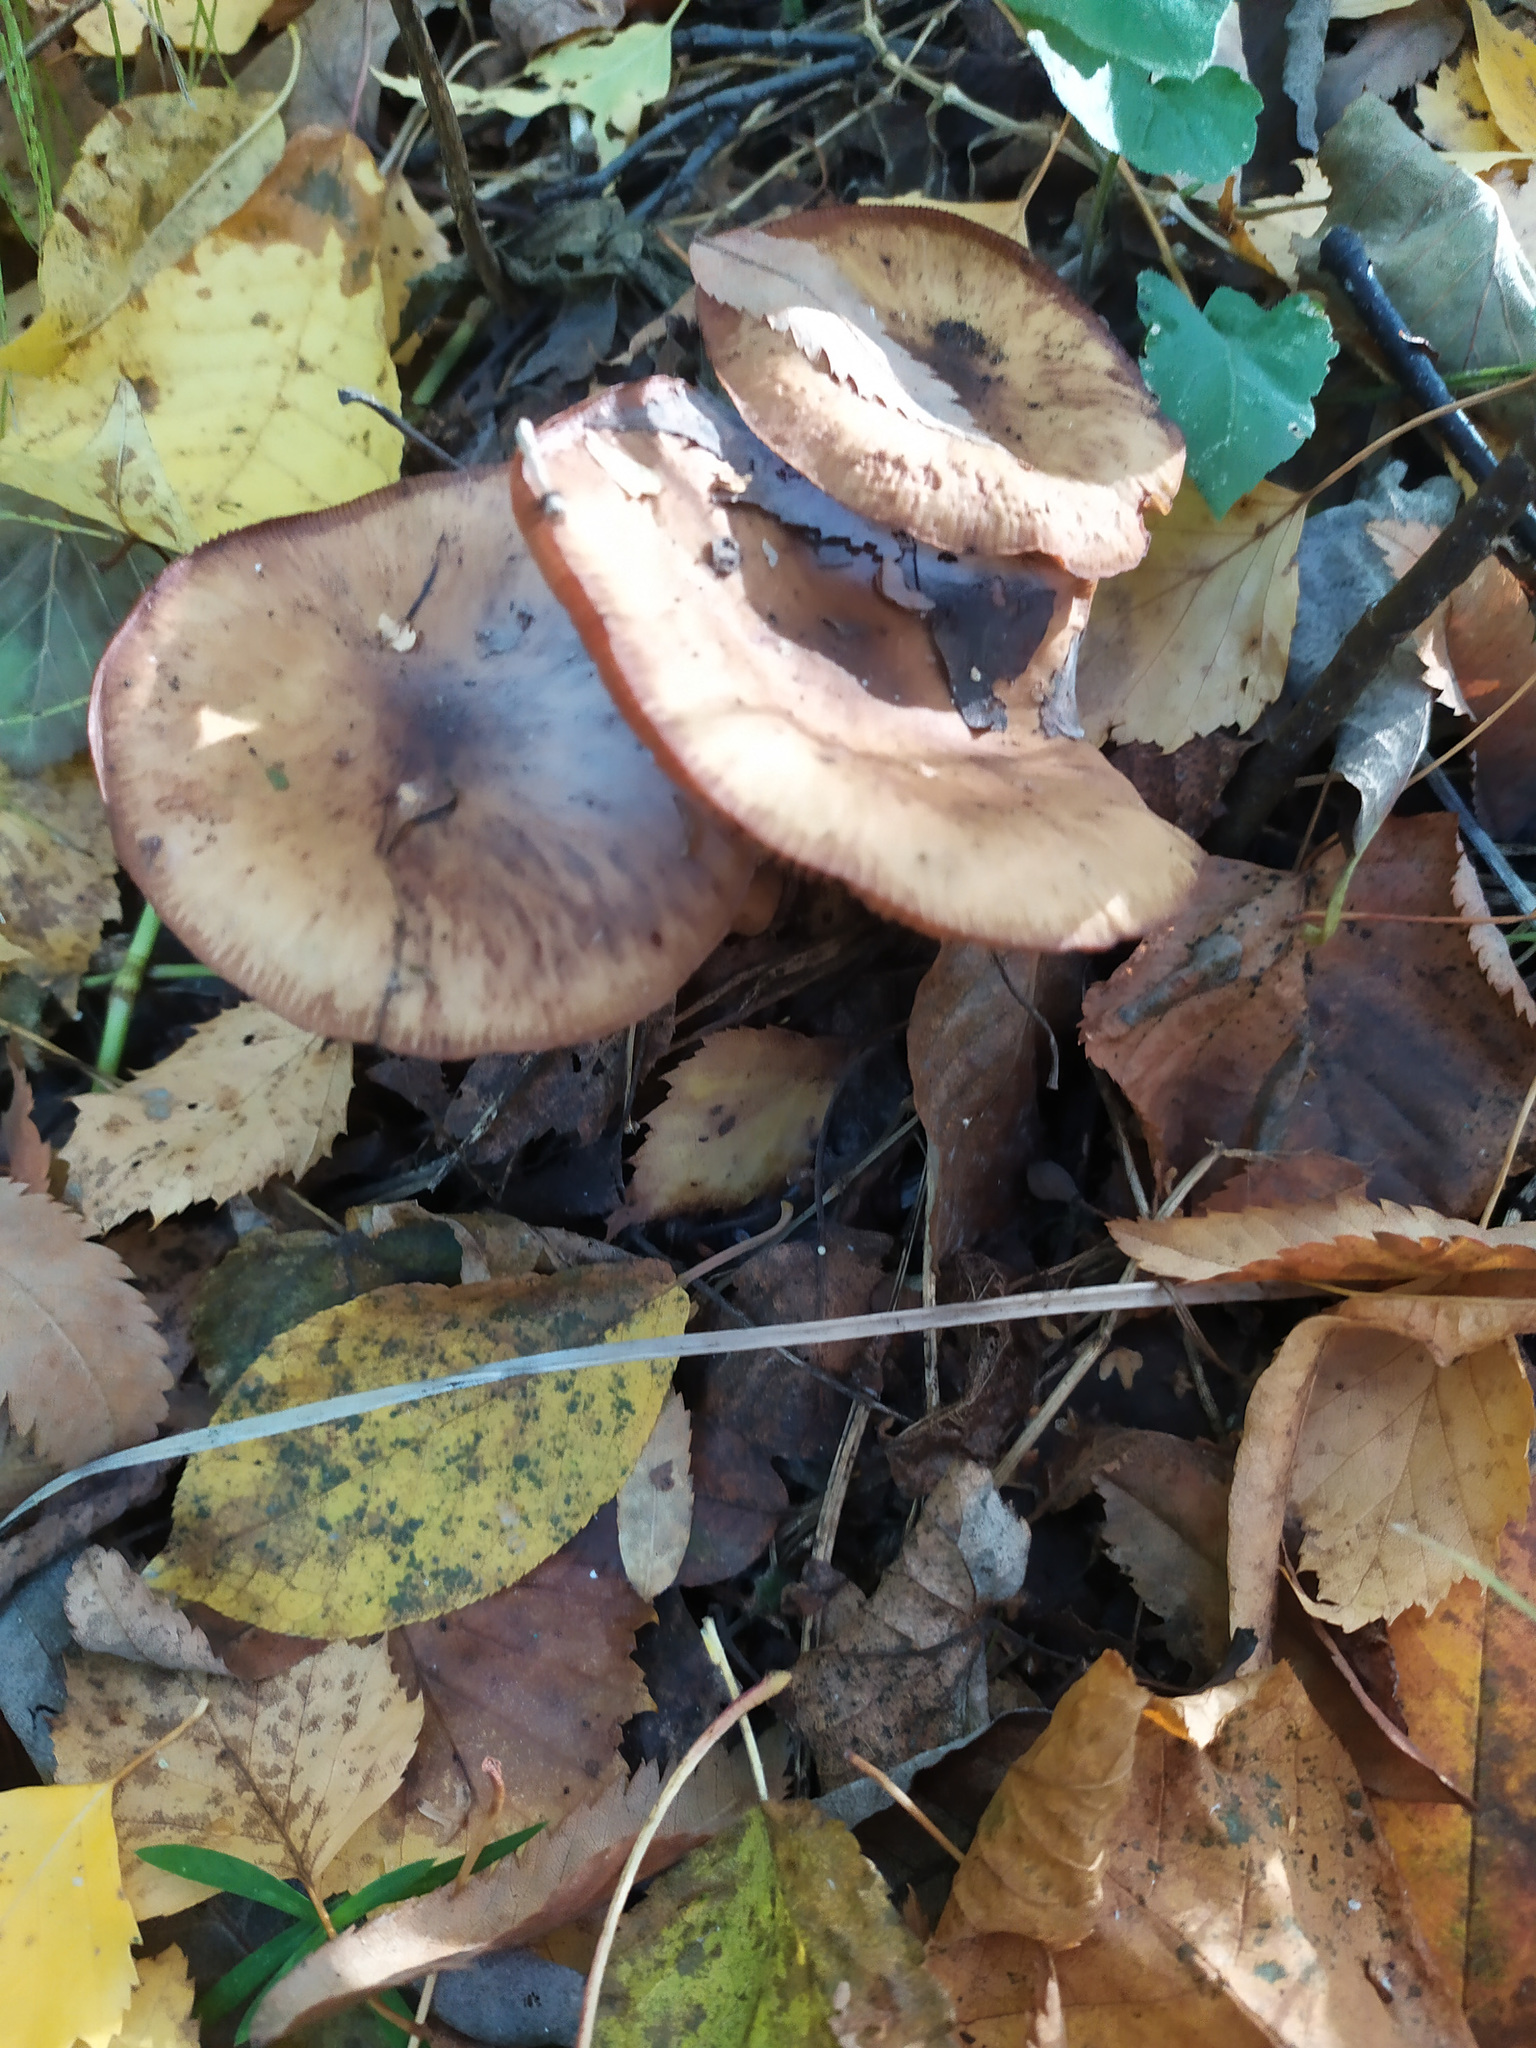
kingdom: Fungi
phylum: Basidiomycota
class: Agaricomycetes
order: Agaricales
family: Physalacriaceae
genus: Armillaria
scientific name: Armillaria mellea
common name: Honey fungus
